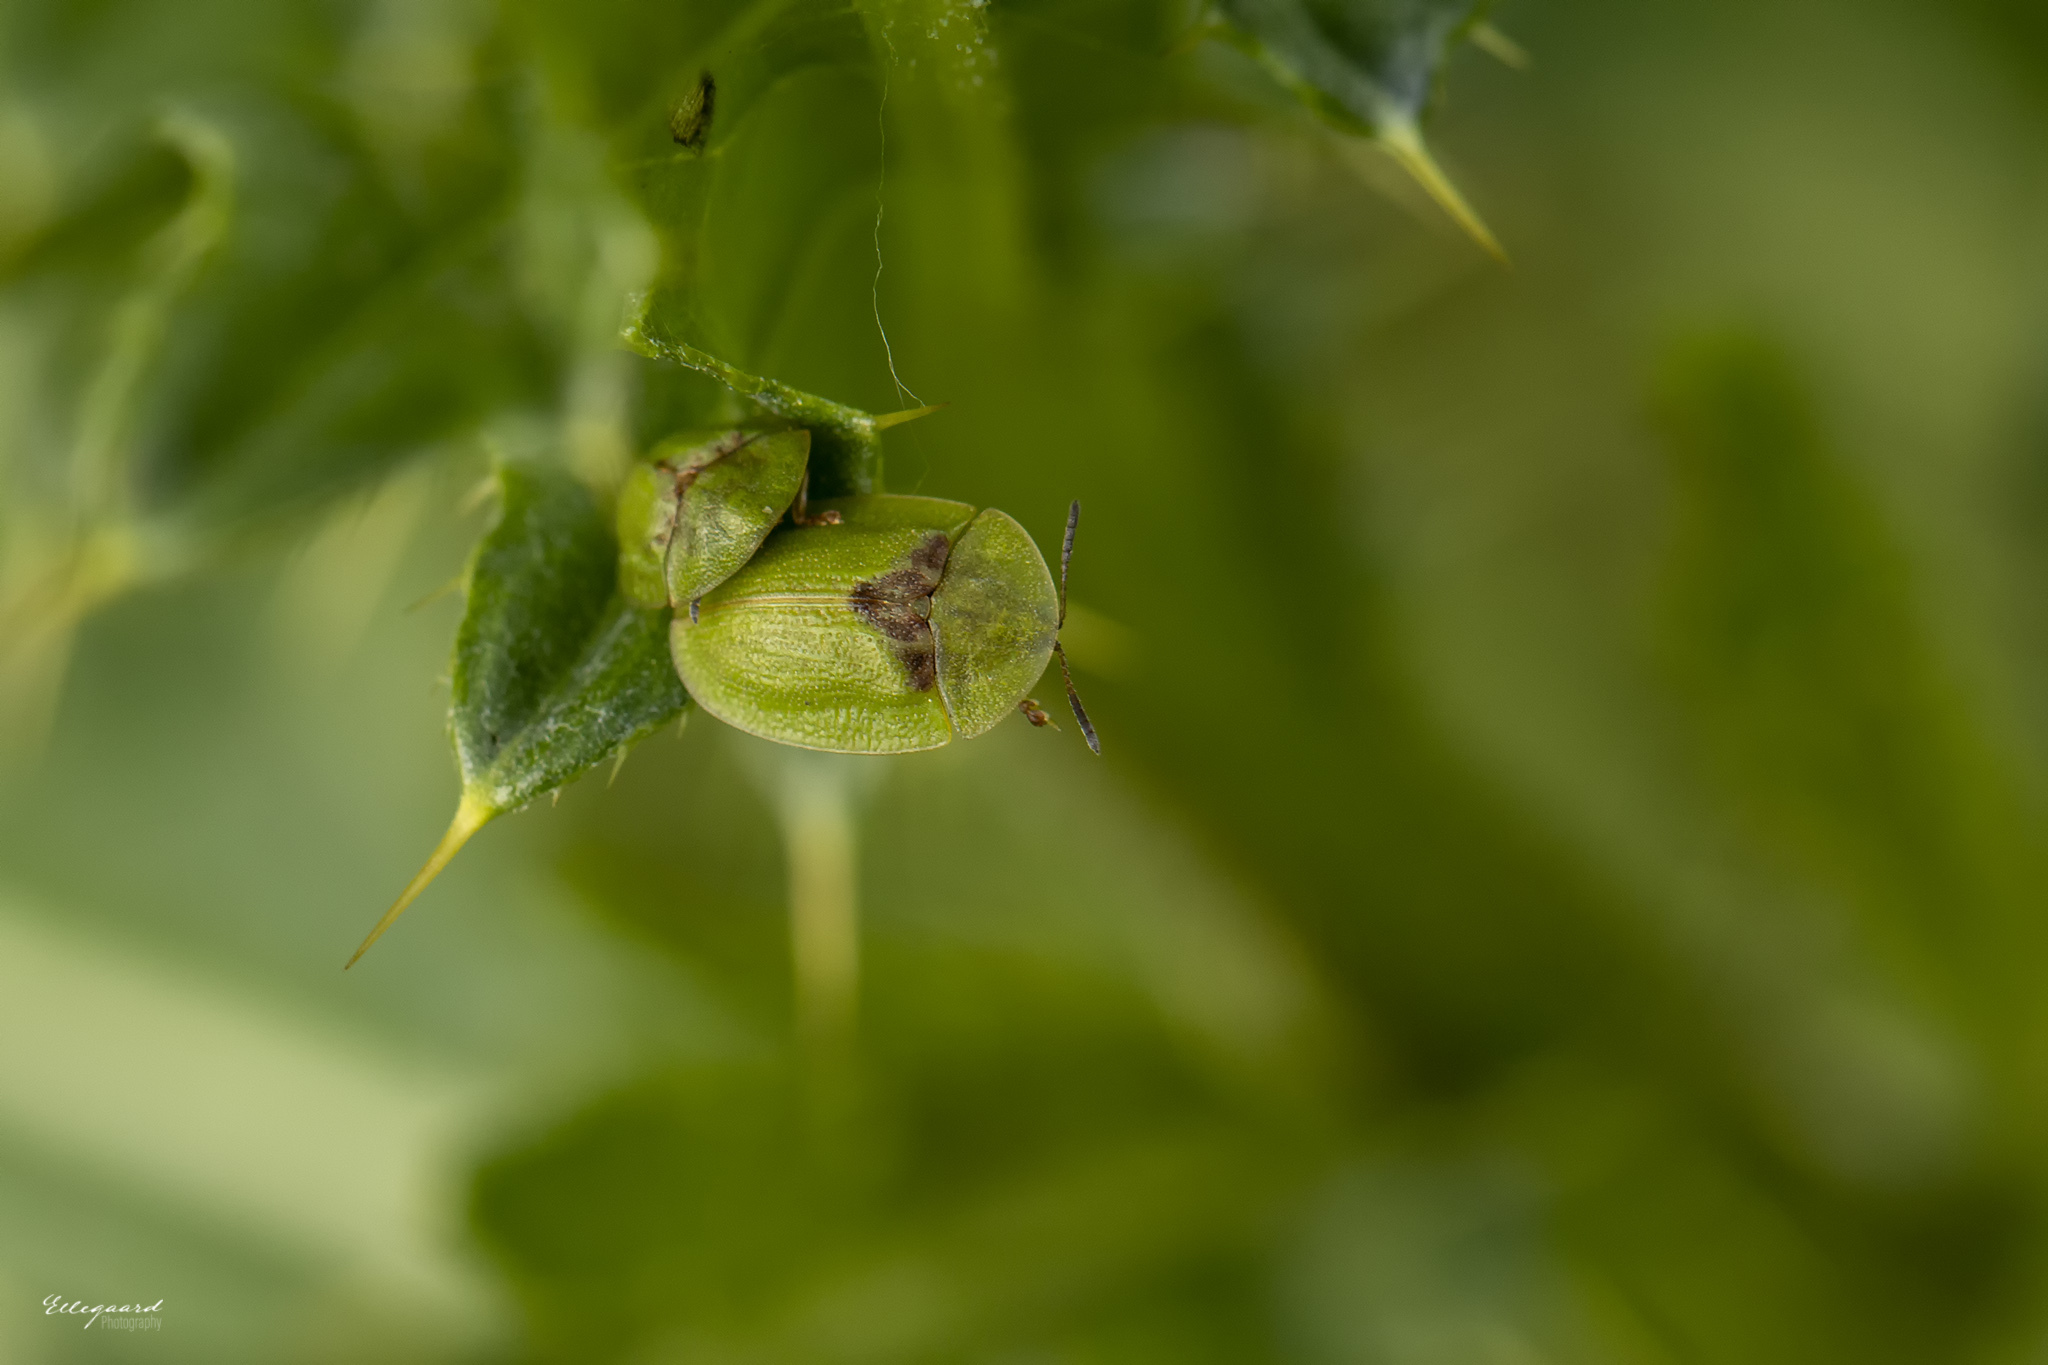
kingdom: Animalia
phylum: Arthropoda
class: Insecta
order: Coleoptera
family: Chrysomelidae
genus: Cassida
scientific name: Cassida rubiginosa
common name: Thistle tortoise beetle
